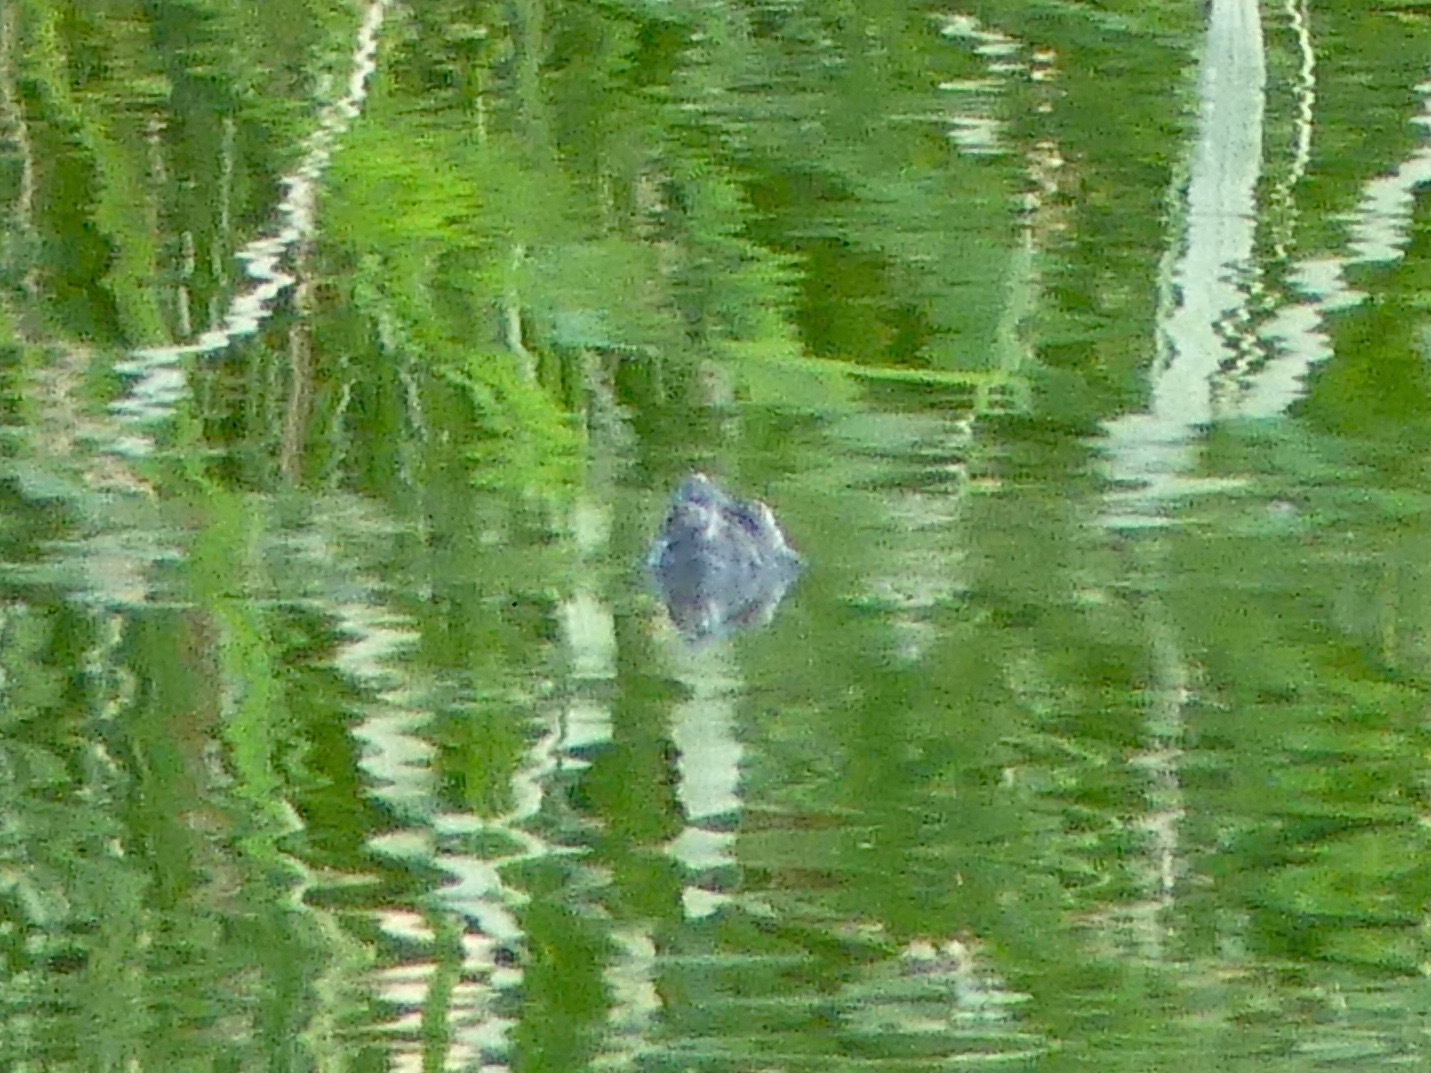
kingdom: Animalia
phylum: Chordata
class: Testudines
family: Chelydridae
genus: Chelydra
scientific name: Chelydra serpentina
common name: Common snapping turtle
